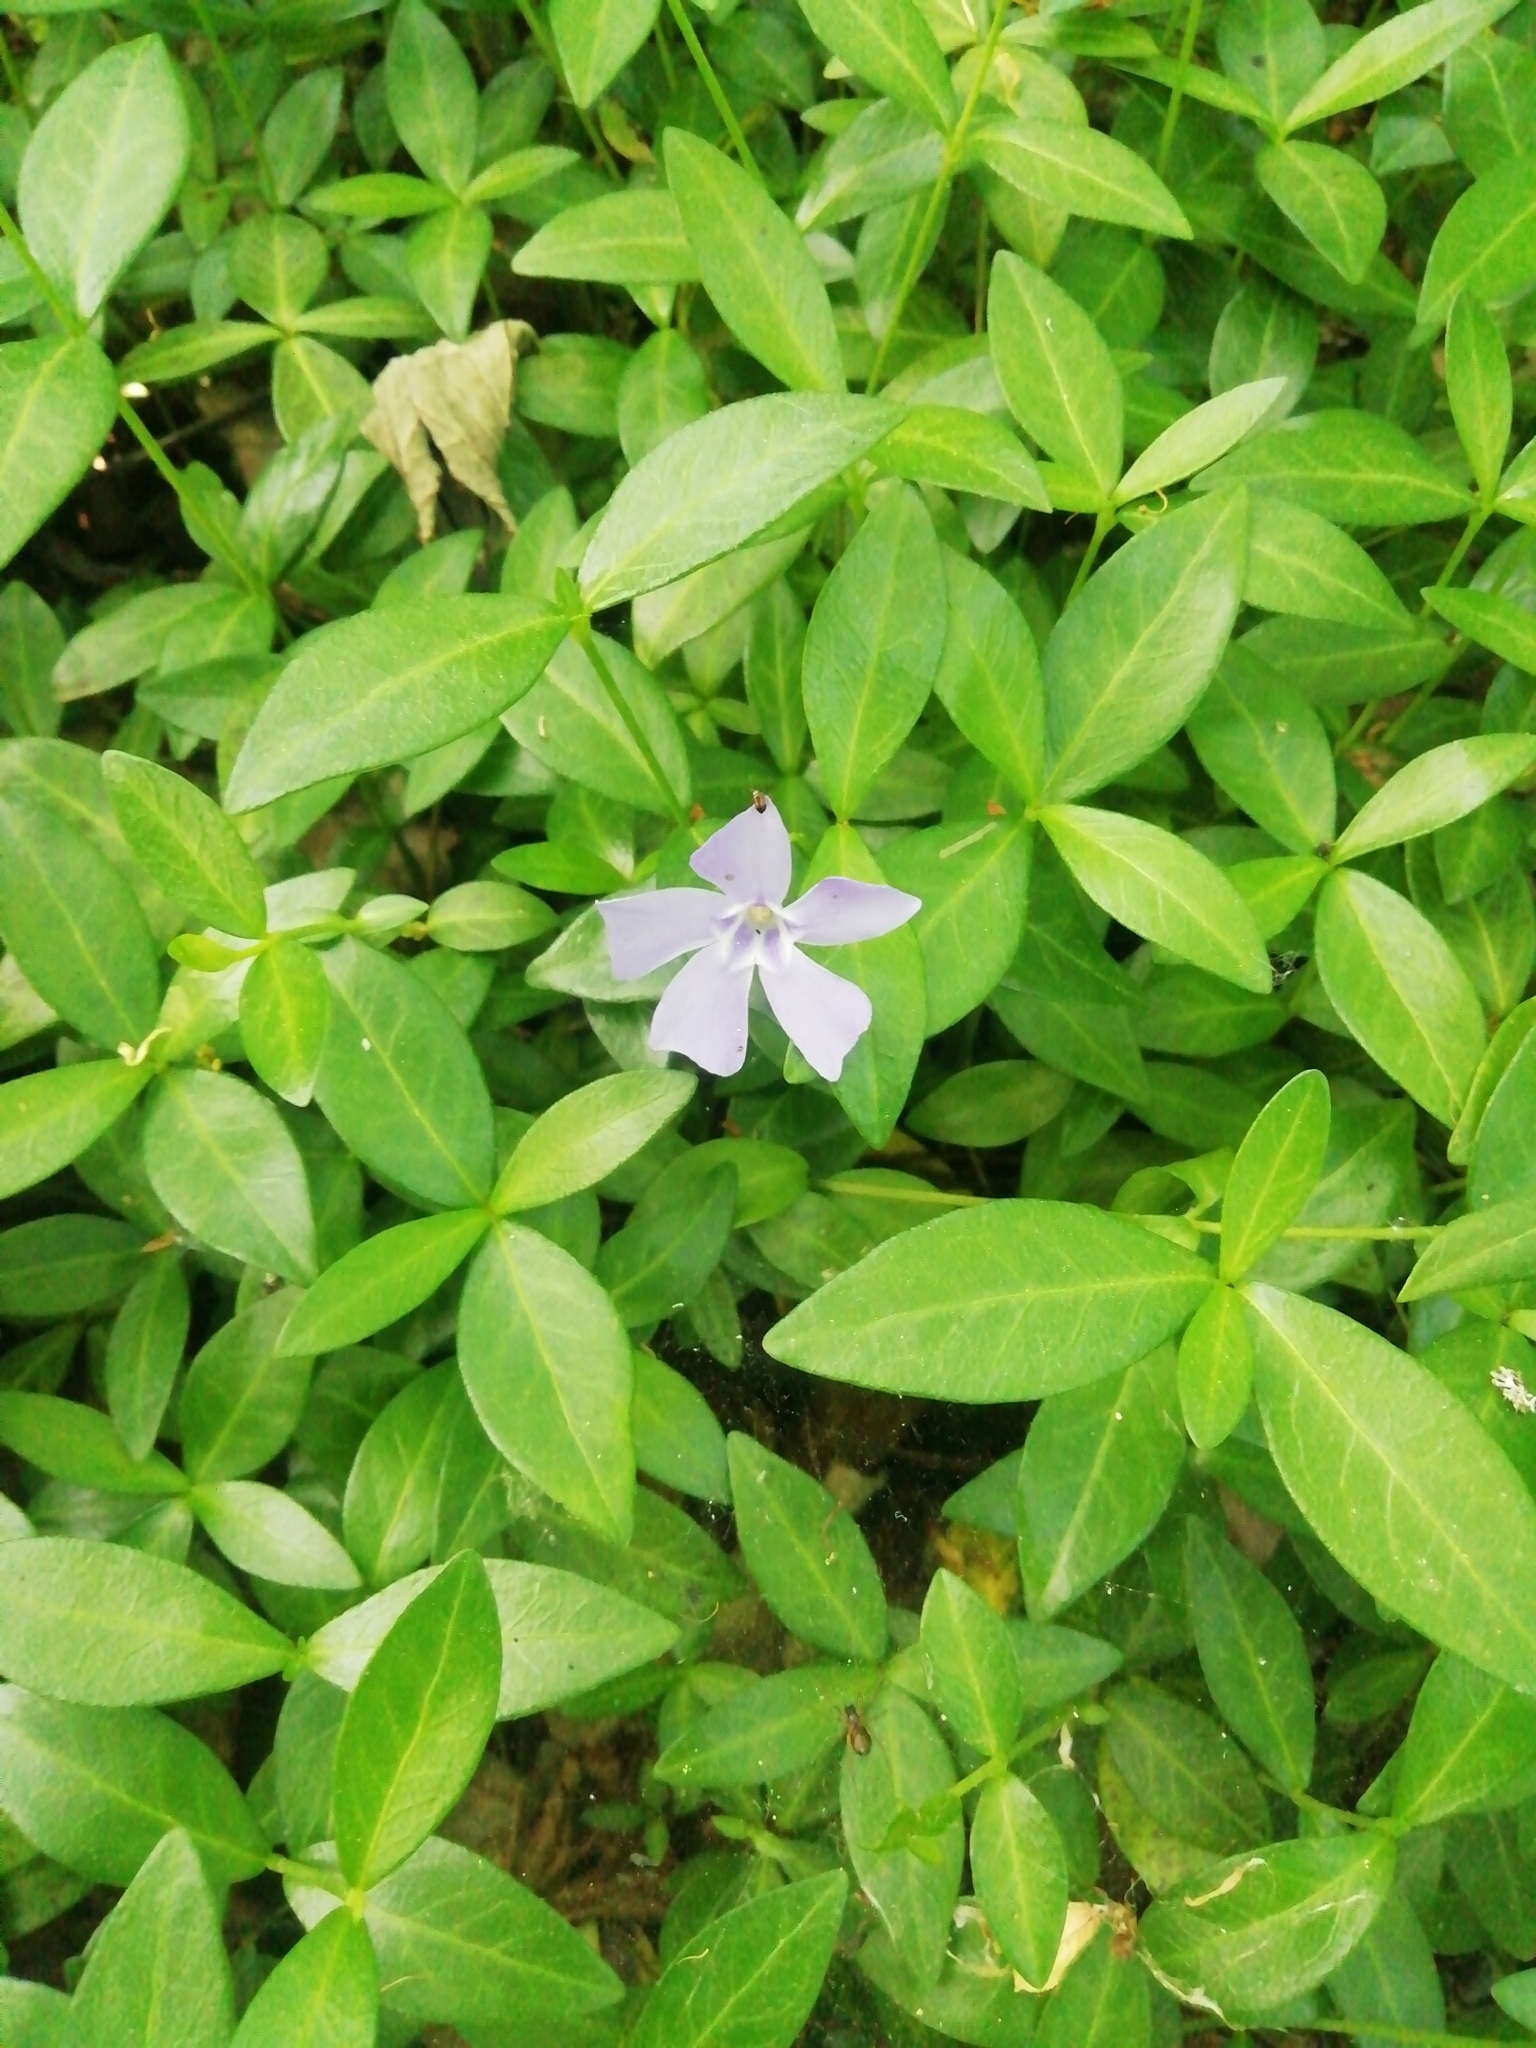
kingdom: Plantae
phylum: Tracheophyta
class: Magnoliopsida
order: Gentianales
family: Apocynaceae
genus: Vinca
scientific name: Vinca minor
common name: Lesser periwinkle
